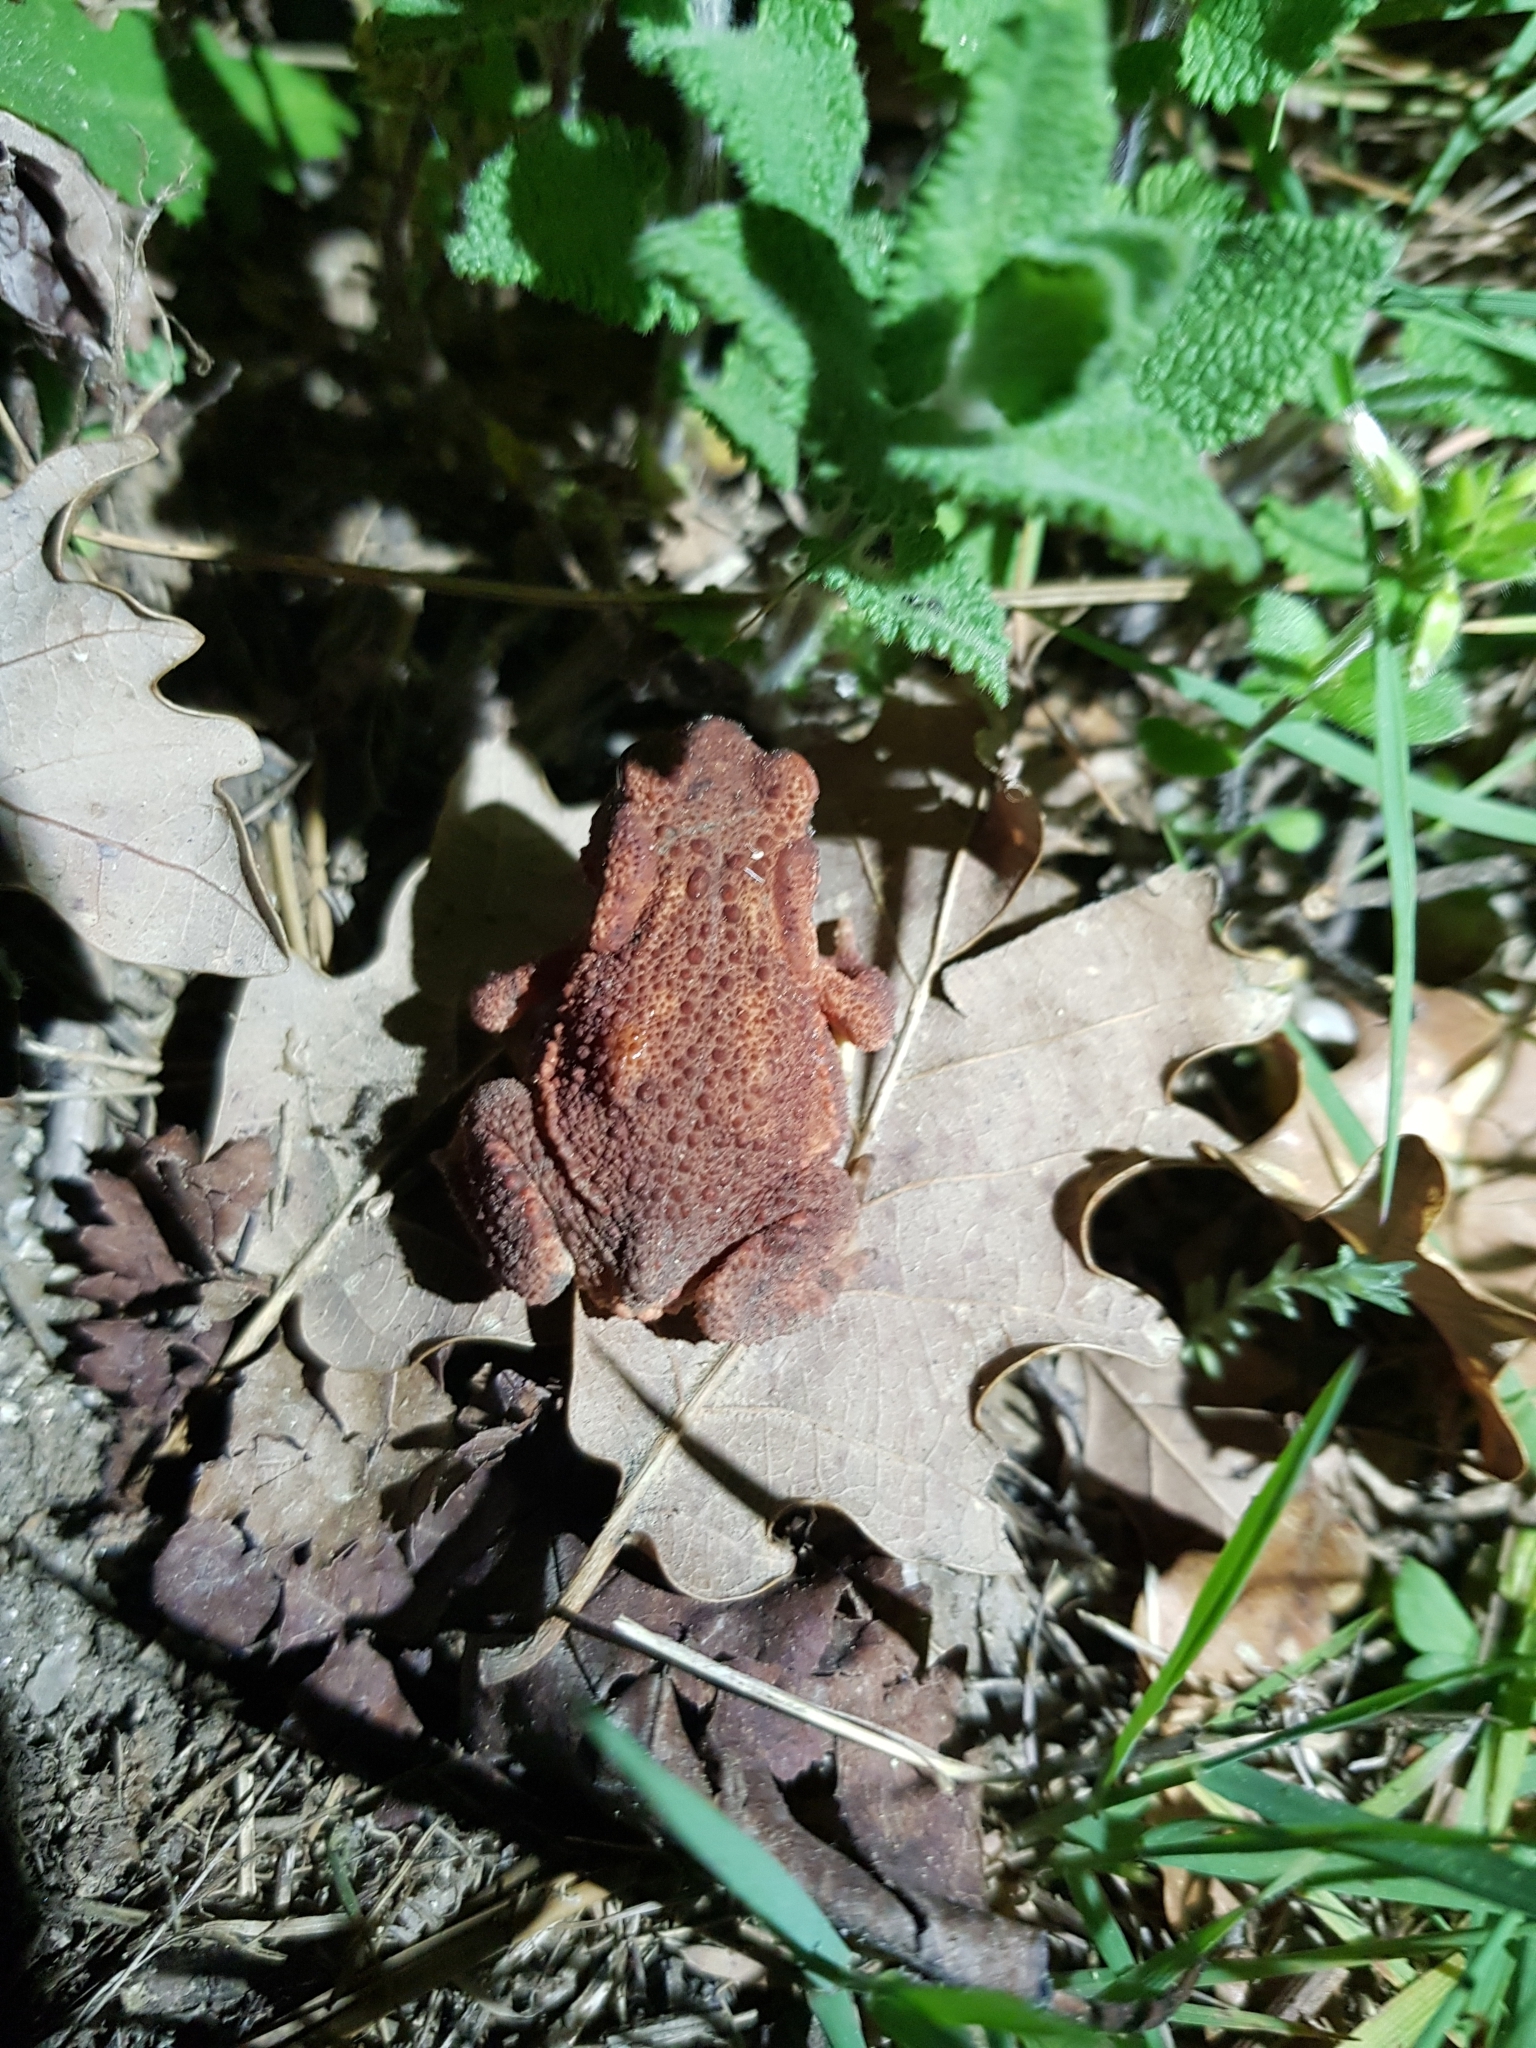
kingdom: Animalia
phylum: Chordata
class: Amphibia
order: Anura
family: Bufonidae
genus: Bufo
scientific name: Bufo spinosus
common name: Western common toad
